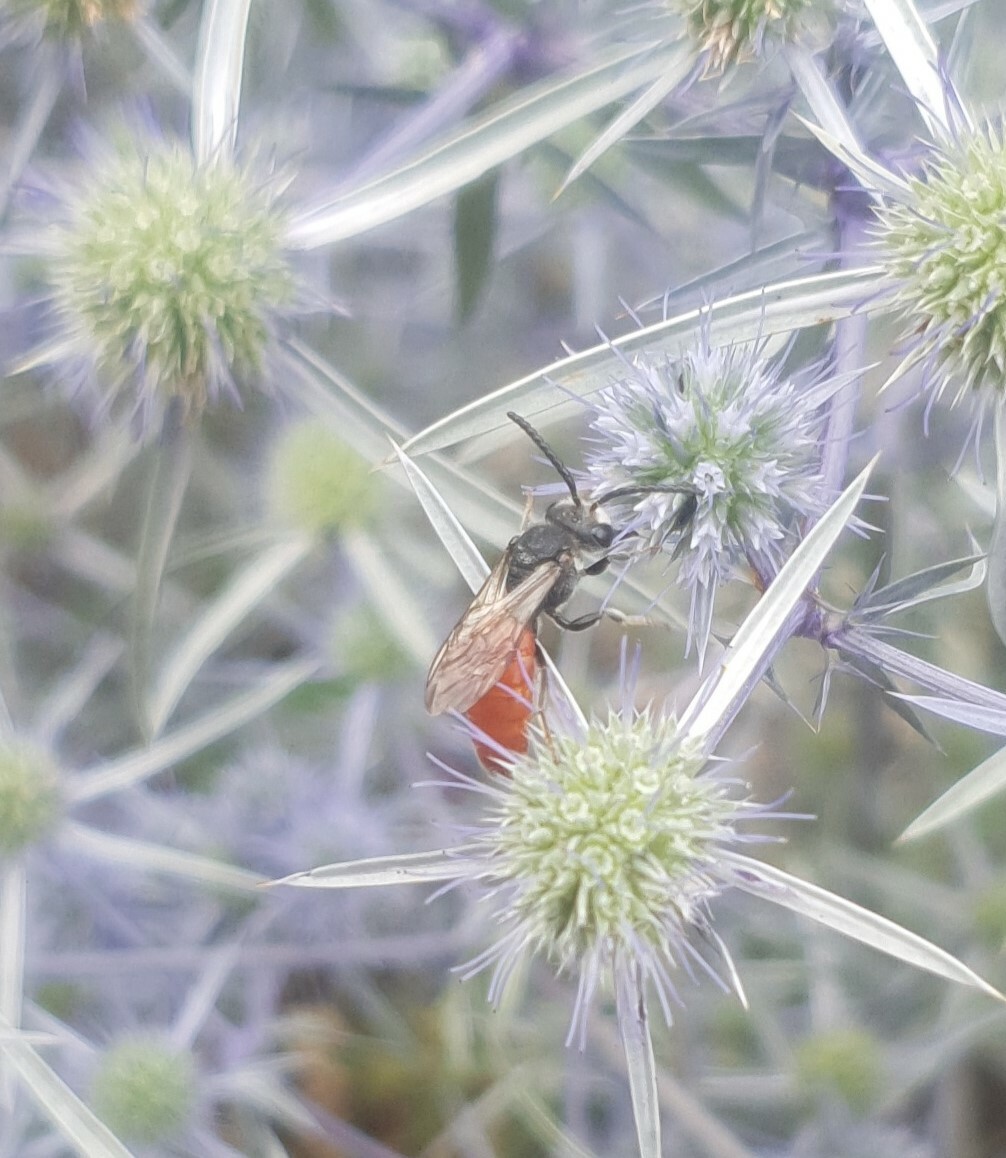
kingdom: Animalia
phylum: Arthropoda
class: Insecta
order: Hymenoptera
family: Halictidae
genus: Sphecodes
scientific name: Sphecodes albilabris
